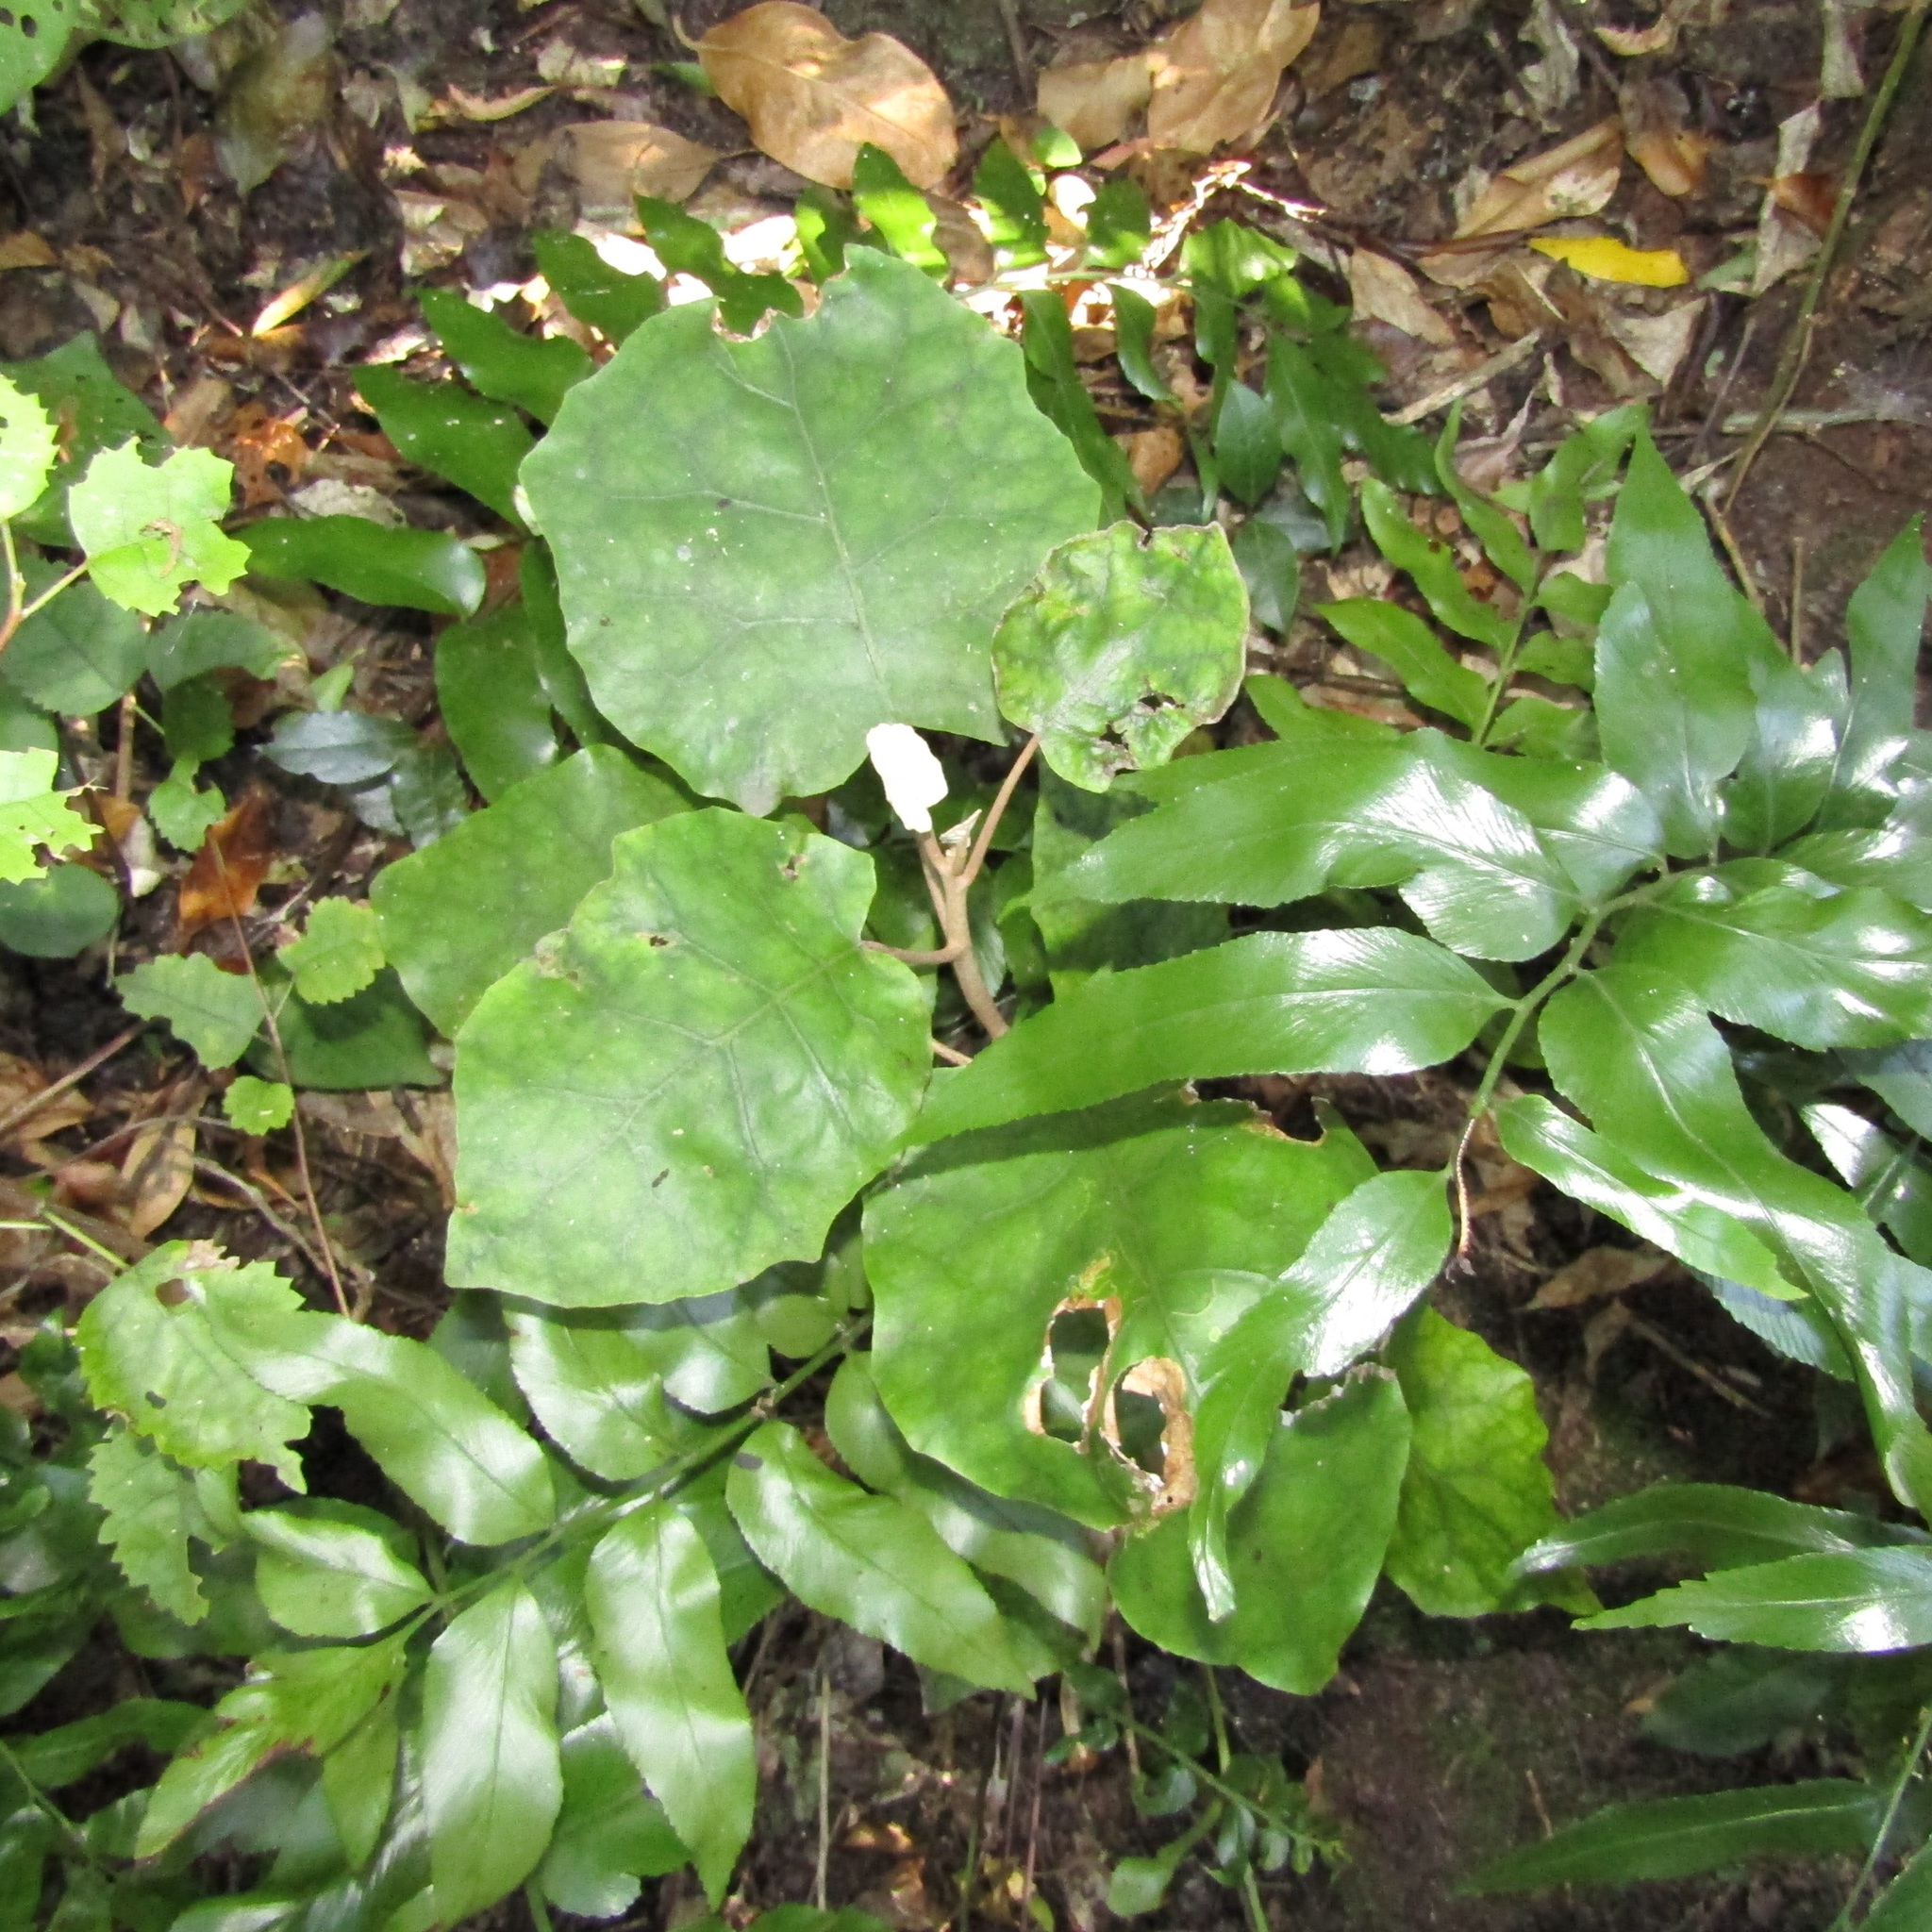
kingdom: Plantae
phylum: Tracheophyta
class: Magnoliopsida
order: Asterales
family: Asteraceae
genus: Brachyglottis
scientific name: Brachyglottis repanda
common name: Hedge ragwort
